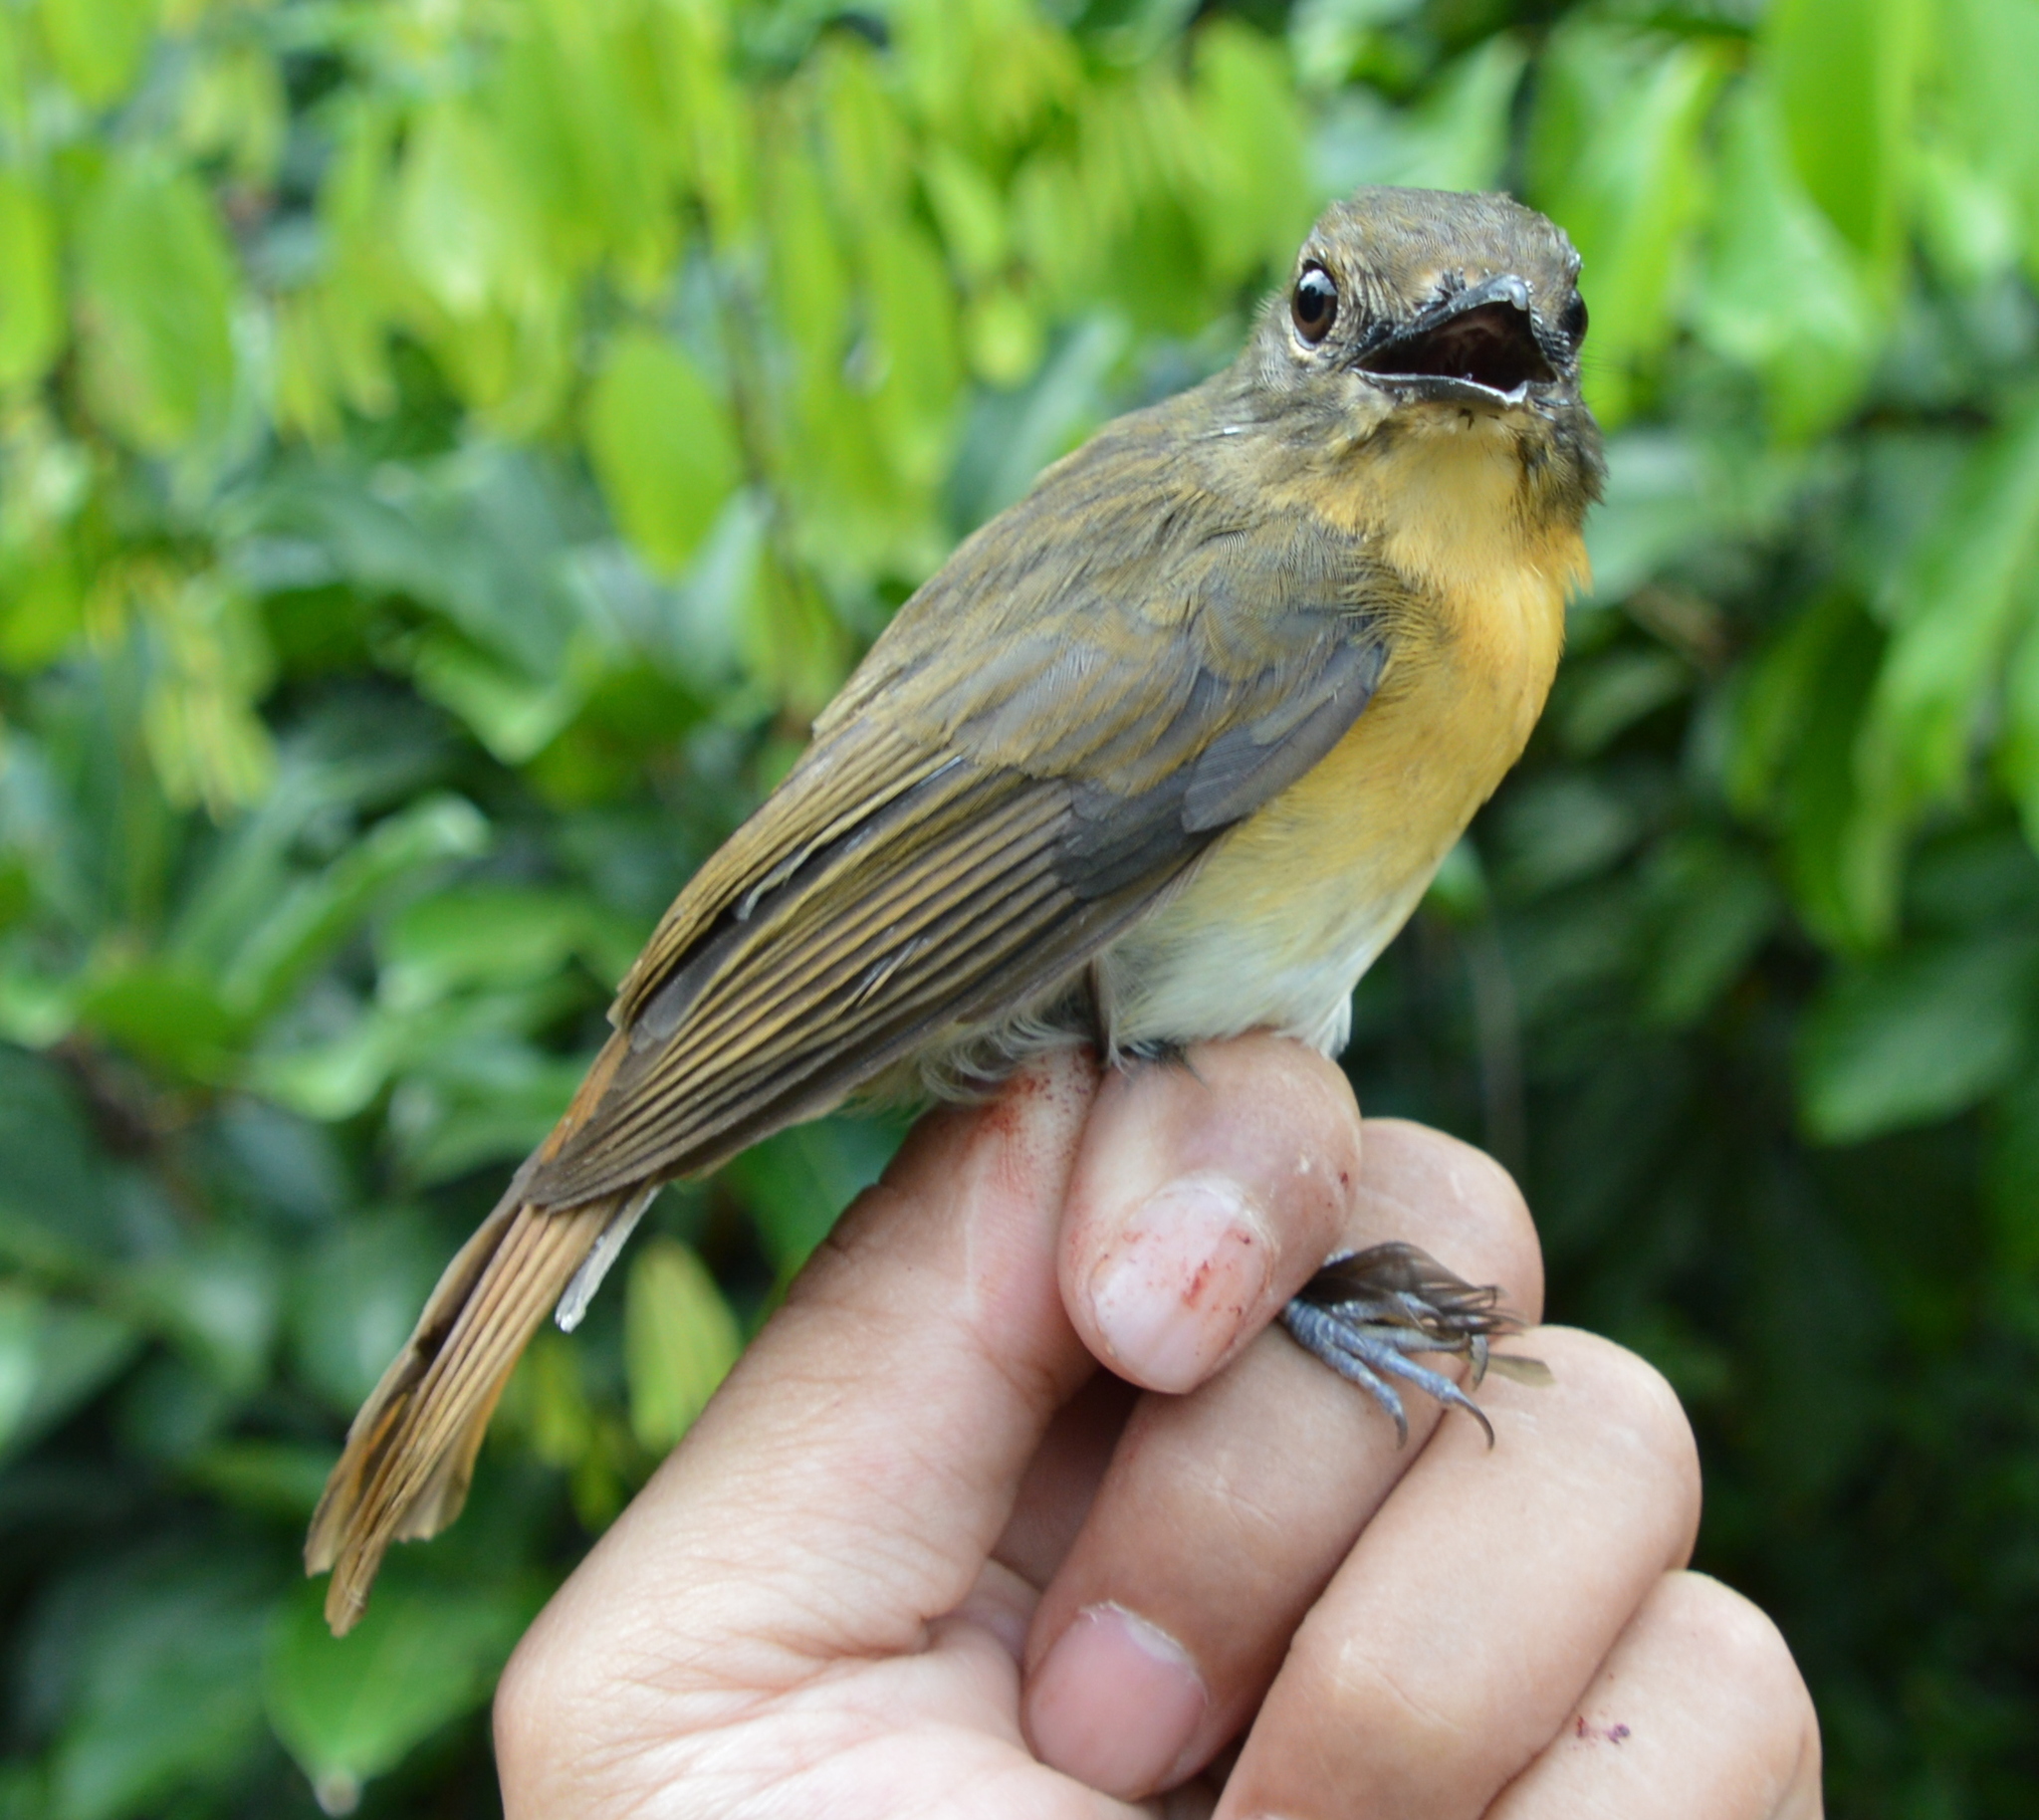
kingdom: Animalia
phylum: Chordata
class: Aves
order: Passeriformes
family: Muscicapidae
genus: Cyornis
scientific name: Cyornis kadayangensis
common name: Meratus blue flycatcher
